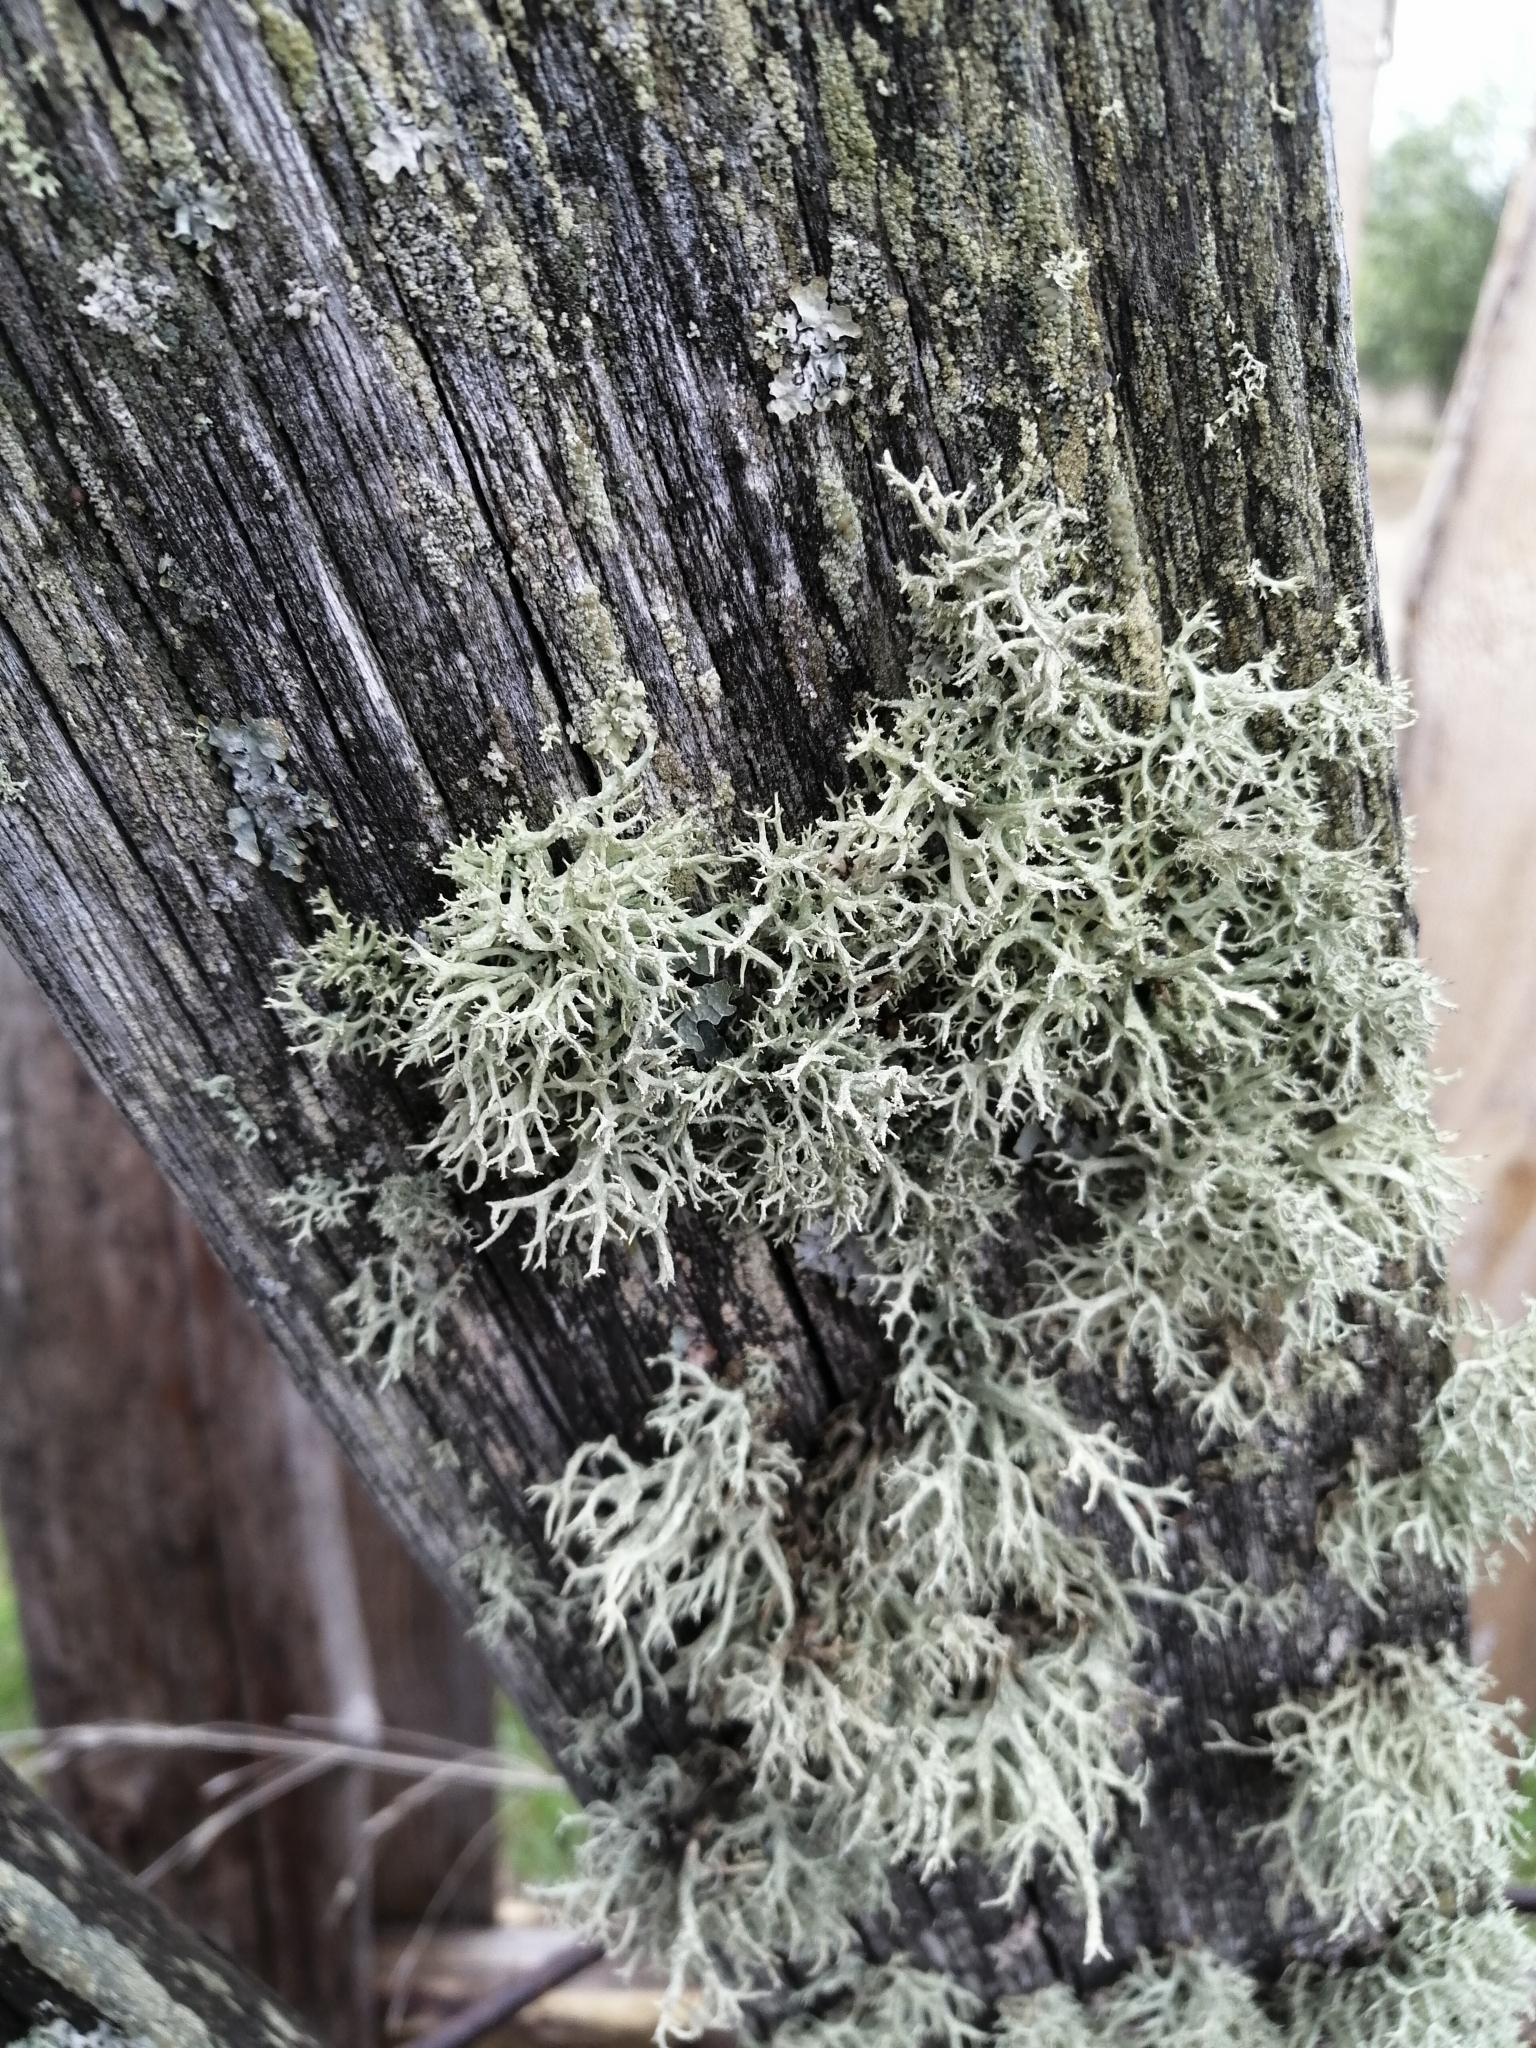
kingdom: Fungi
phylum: Ascomycota
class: Lecanoromycetes
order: Lecanorales
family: Parmeliaceae
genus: Evernia
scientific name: Evernia mesomorpha
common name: Boreal oak moss lichen
